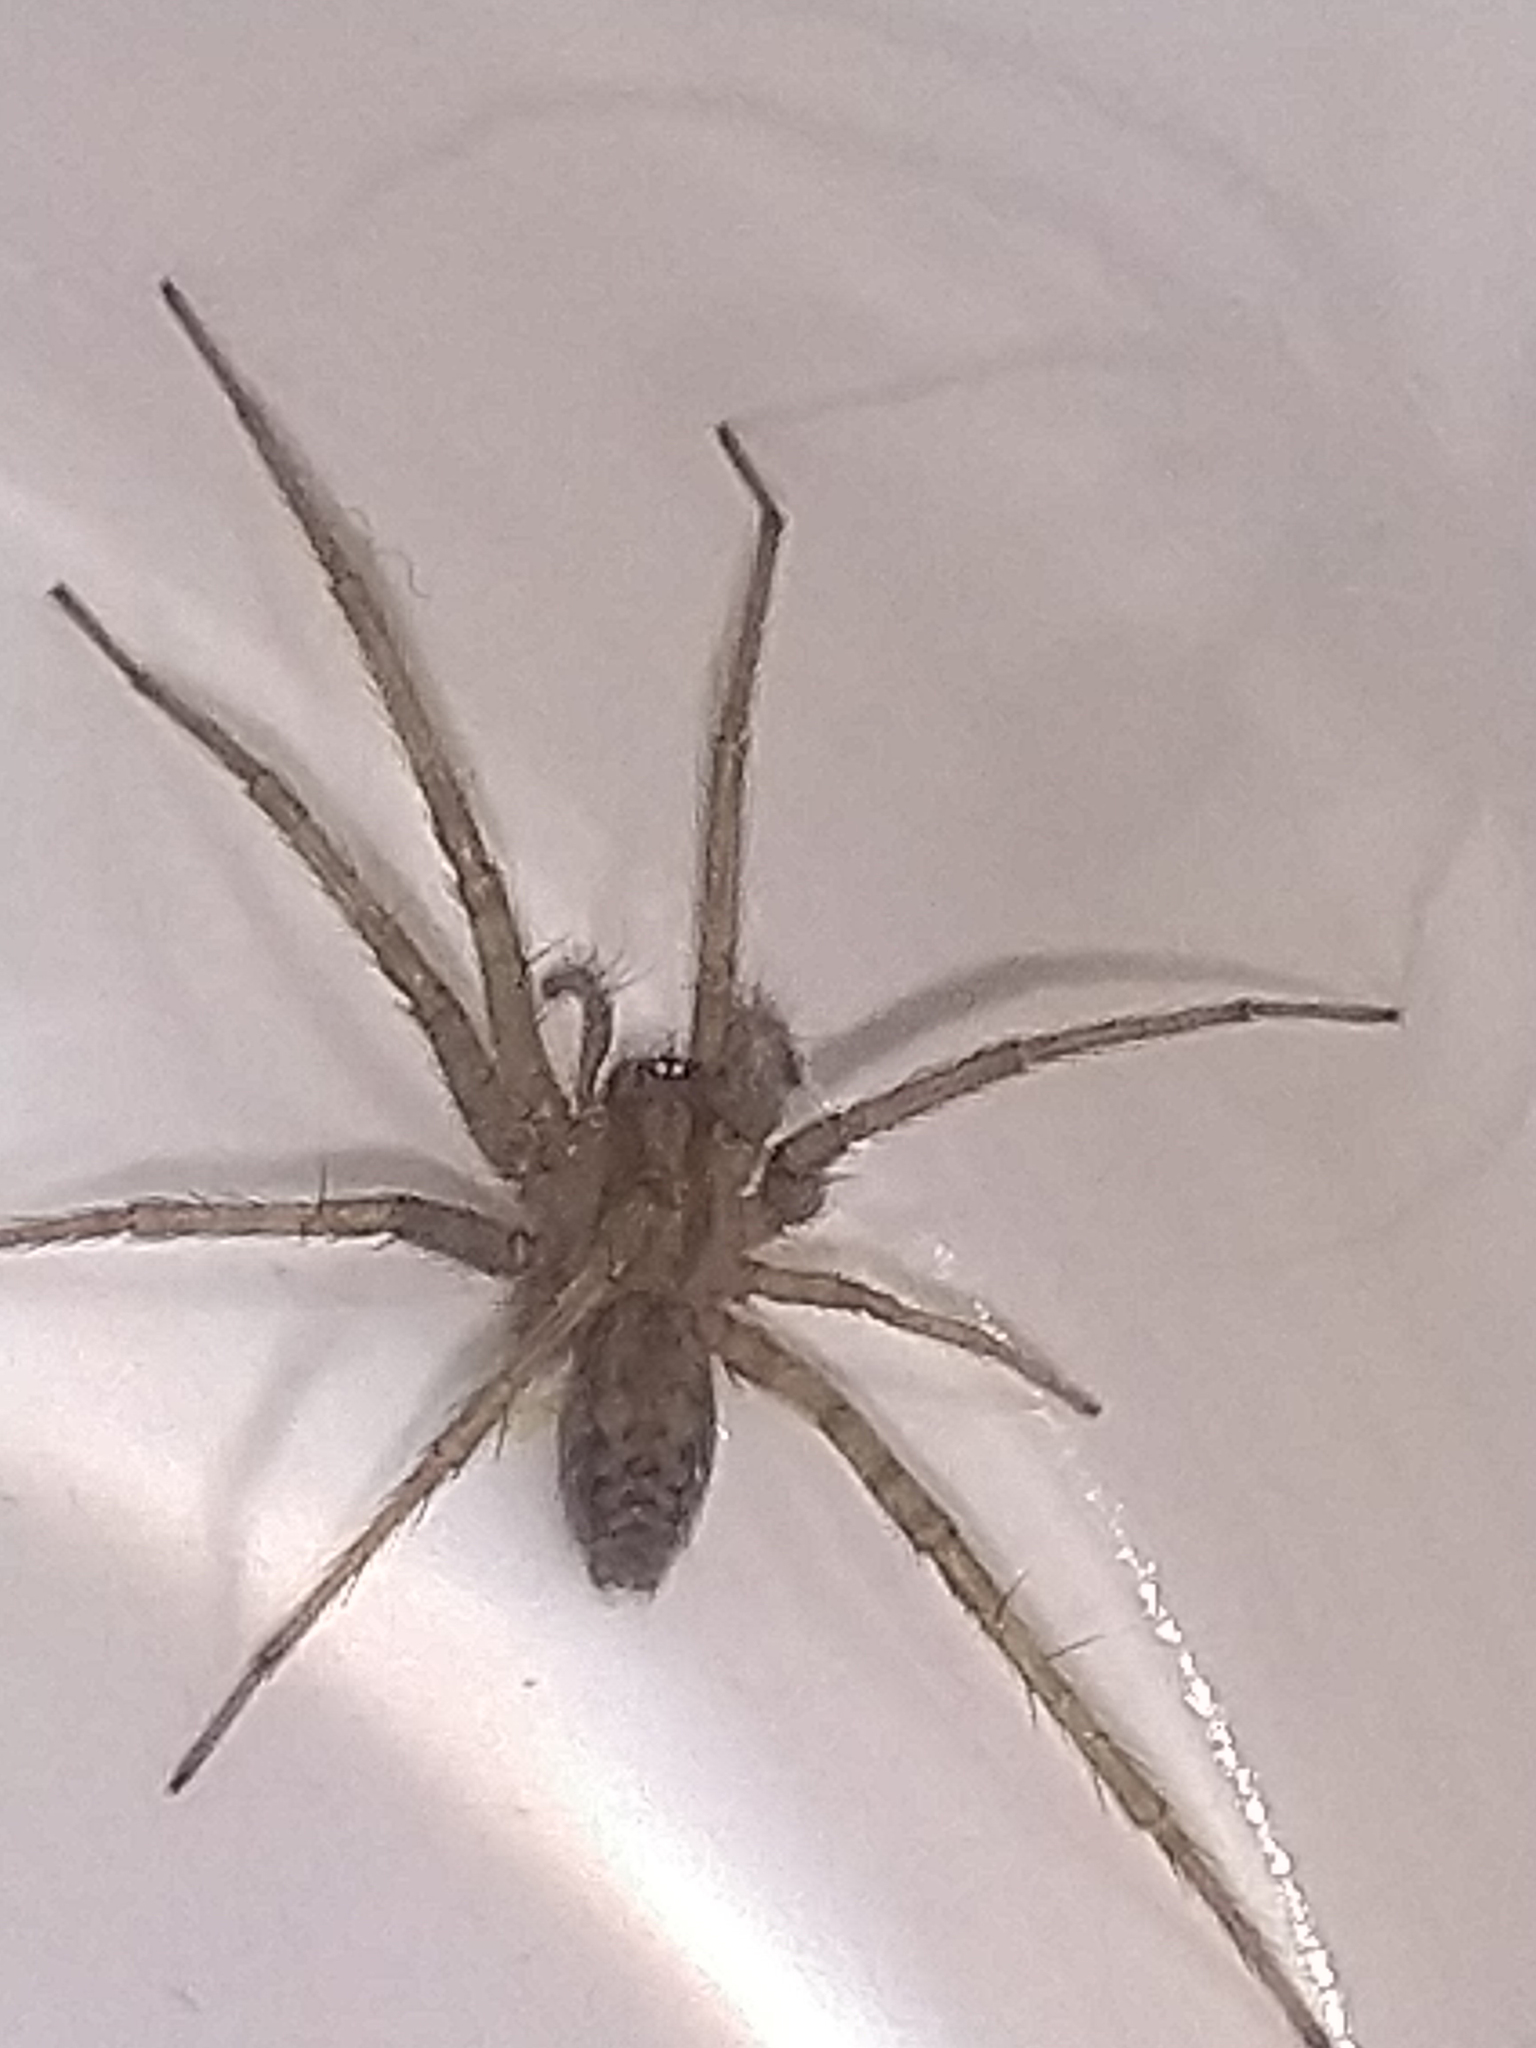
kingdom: Animalia
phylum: Arthropoda
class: Arachnida
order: Araneae
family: Agelenidae
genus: Tegenaria
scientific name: Tegenaria domestica
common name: Barn funnel weaver
